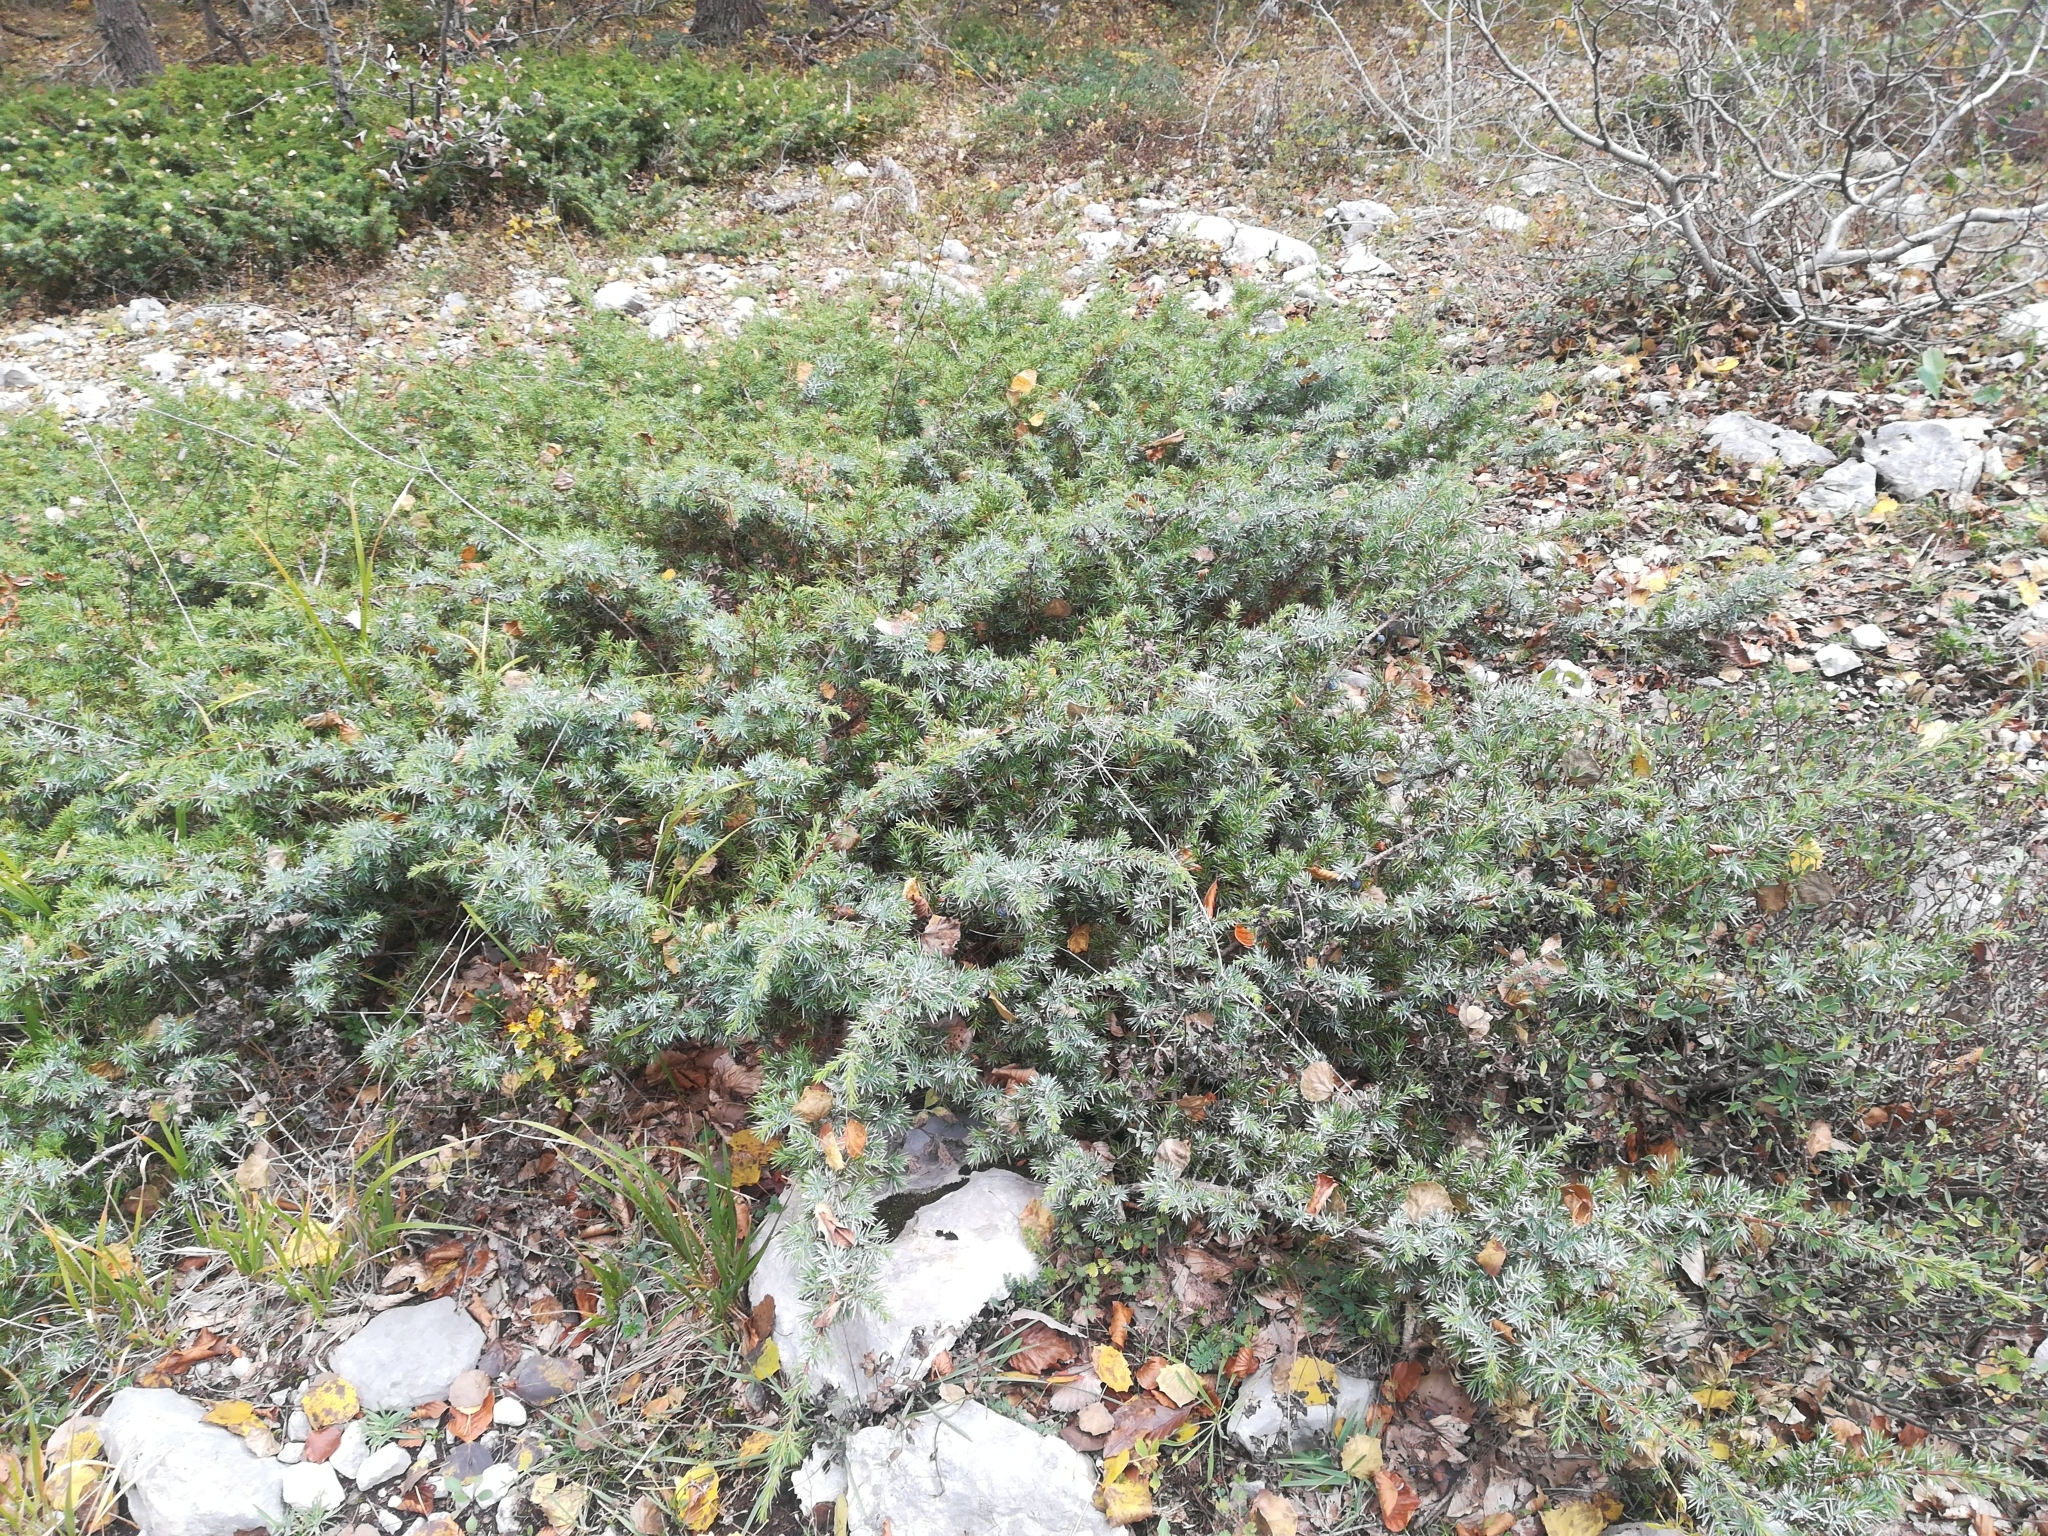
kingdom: Plantae
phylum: Tracheophyta
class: Pinopsida
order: Pinales
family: Cupressaceae
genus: Juniperus
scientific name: Juniperus communis
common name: Common juniper
